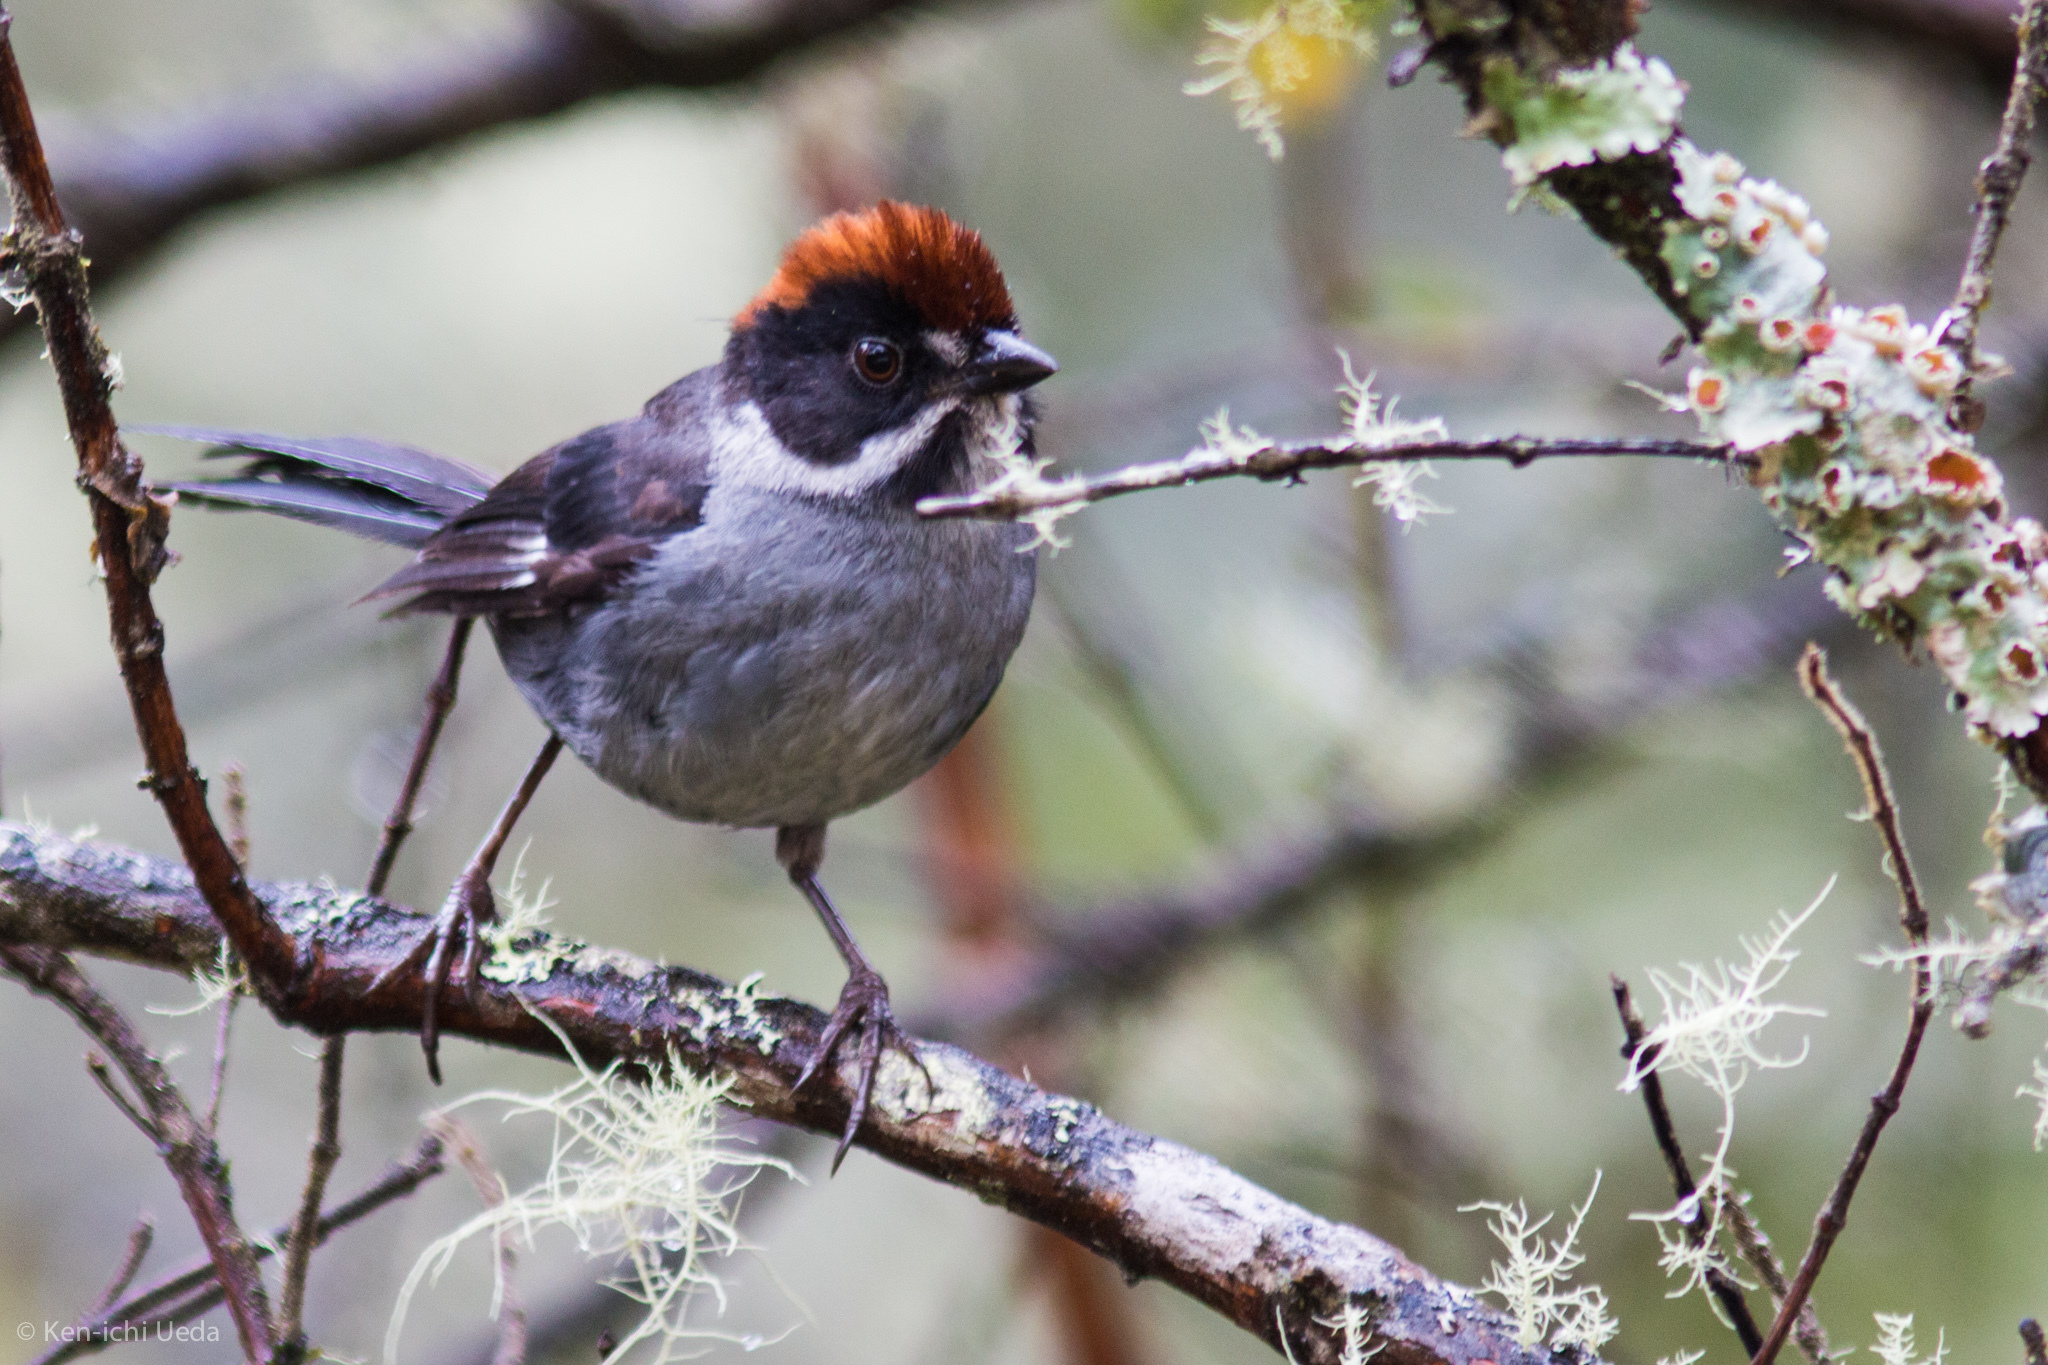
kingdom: Animalia
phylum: Chordata
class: Aves
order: Passeriformes
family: Passerellidae
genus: Atlapetes
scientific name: Atlapetes schistaceus
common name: Slaty brushfinch
